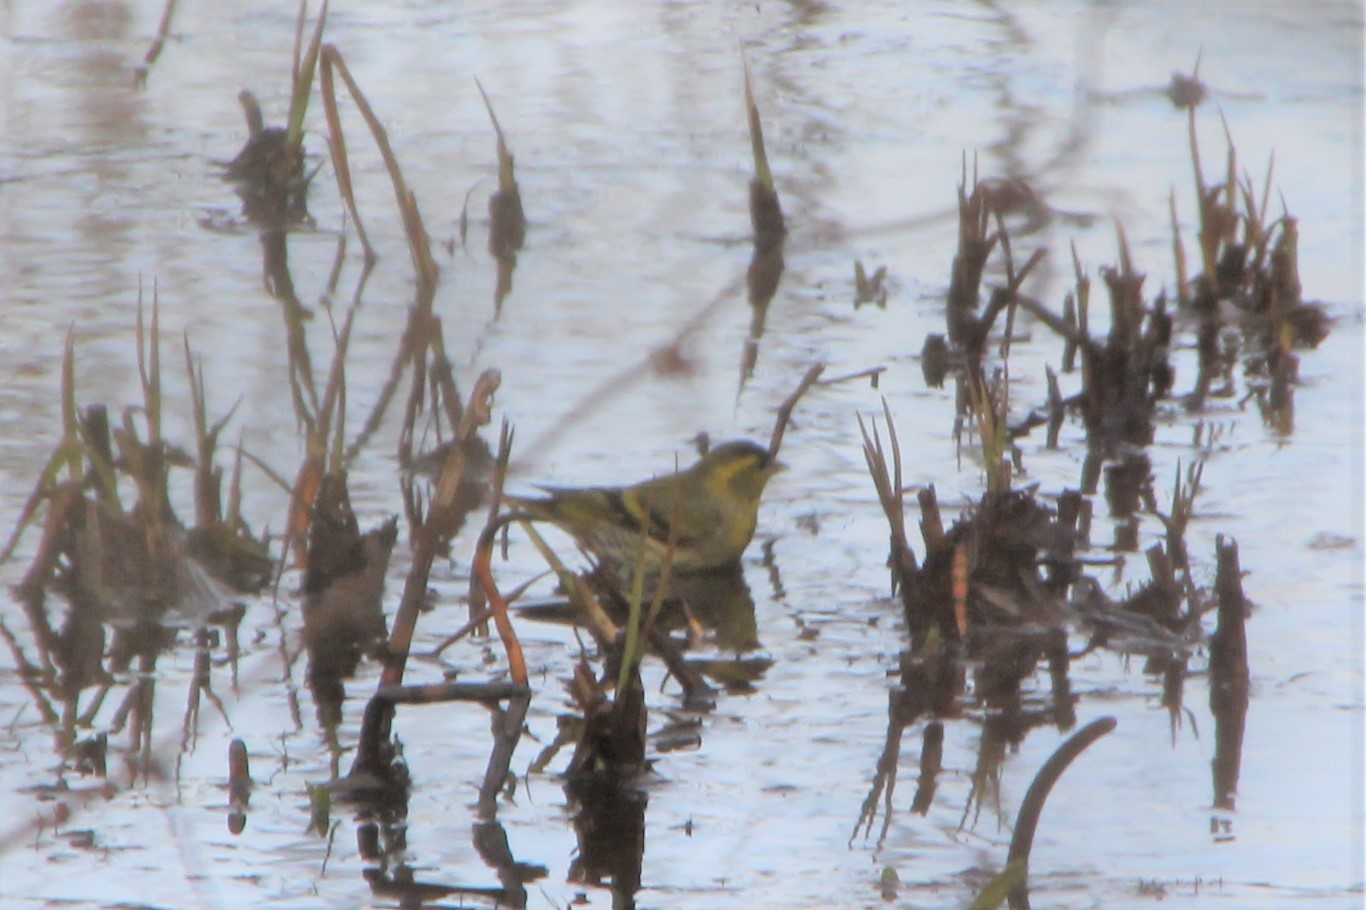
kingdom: Animalia
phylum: Chordata
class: Aves
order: Passeriformes
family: Fringillidae
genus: Spinus
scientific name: Spinus spinus
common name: Eurasian siskin
